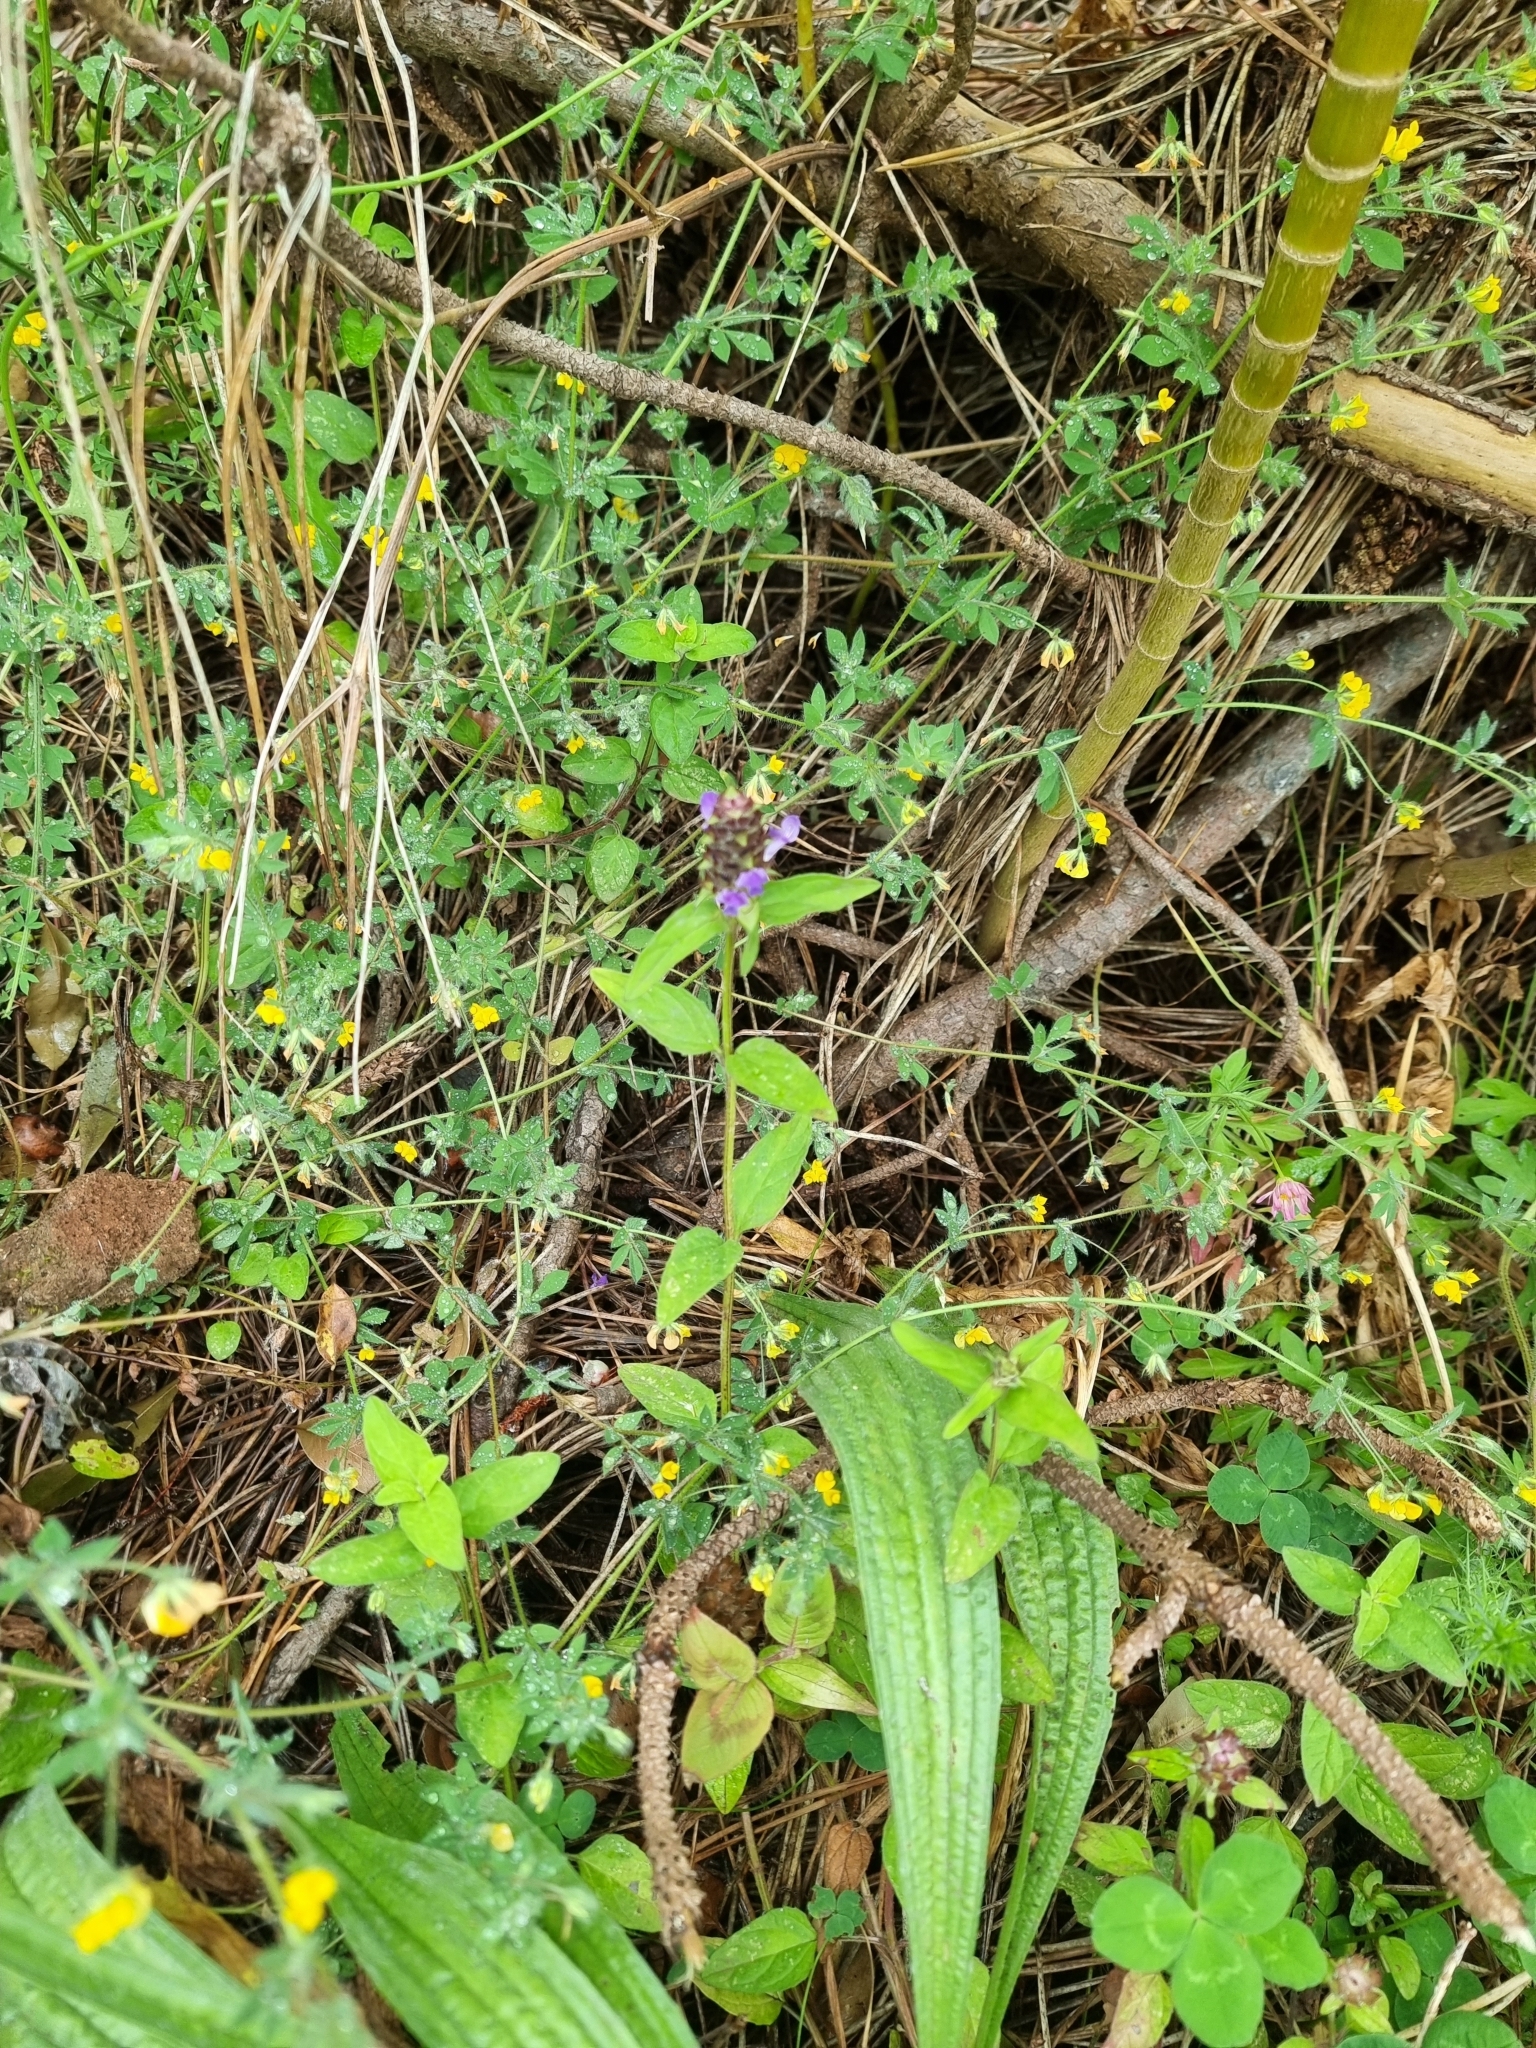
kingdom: Plantae
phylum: Tracheophyta
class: Magnoliopsida
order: Lamiales
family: Lamiaceae
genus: Prunella
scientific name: Prunella vulgaris
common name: Heal-all
